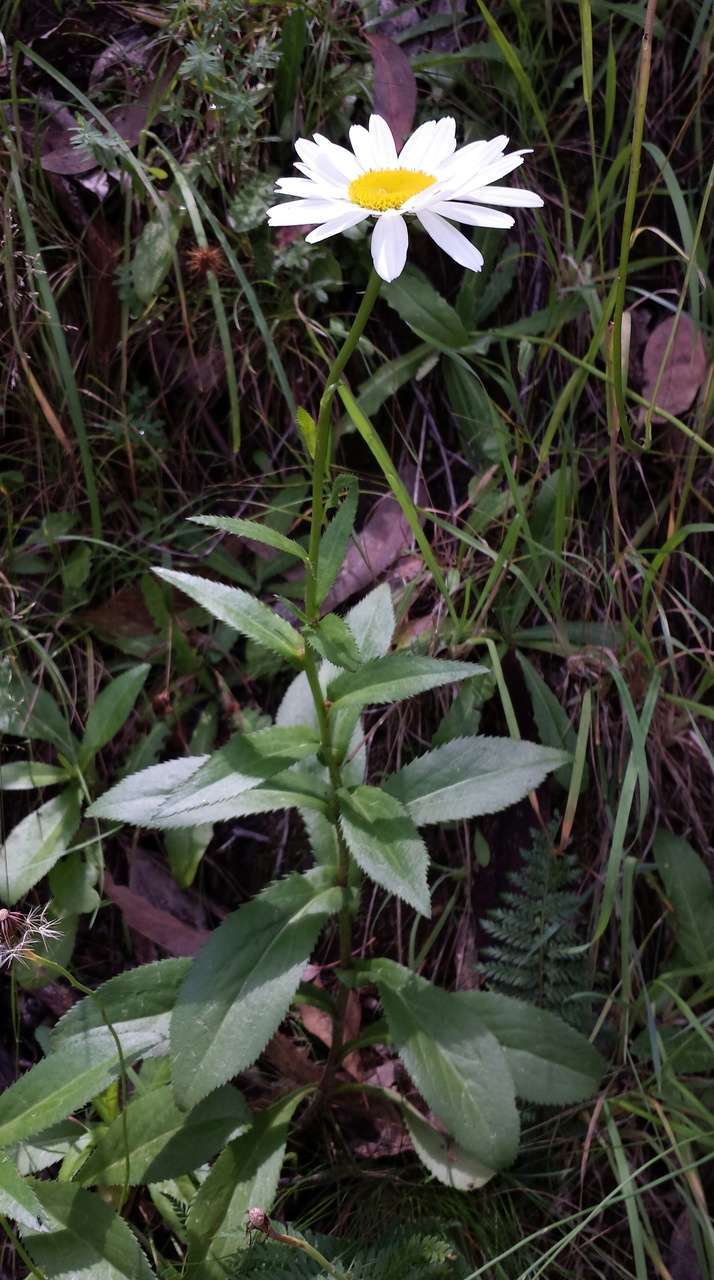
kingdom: Plantae
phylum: Tracheophyta
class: Magnoliopsida
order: Asterales
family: Asteraceae
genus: Leucanthemum
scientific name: Leucanthemum superbum
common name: Shasta daisy
